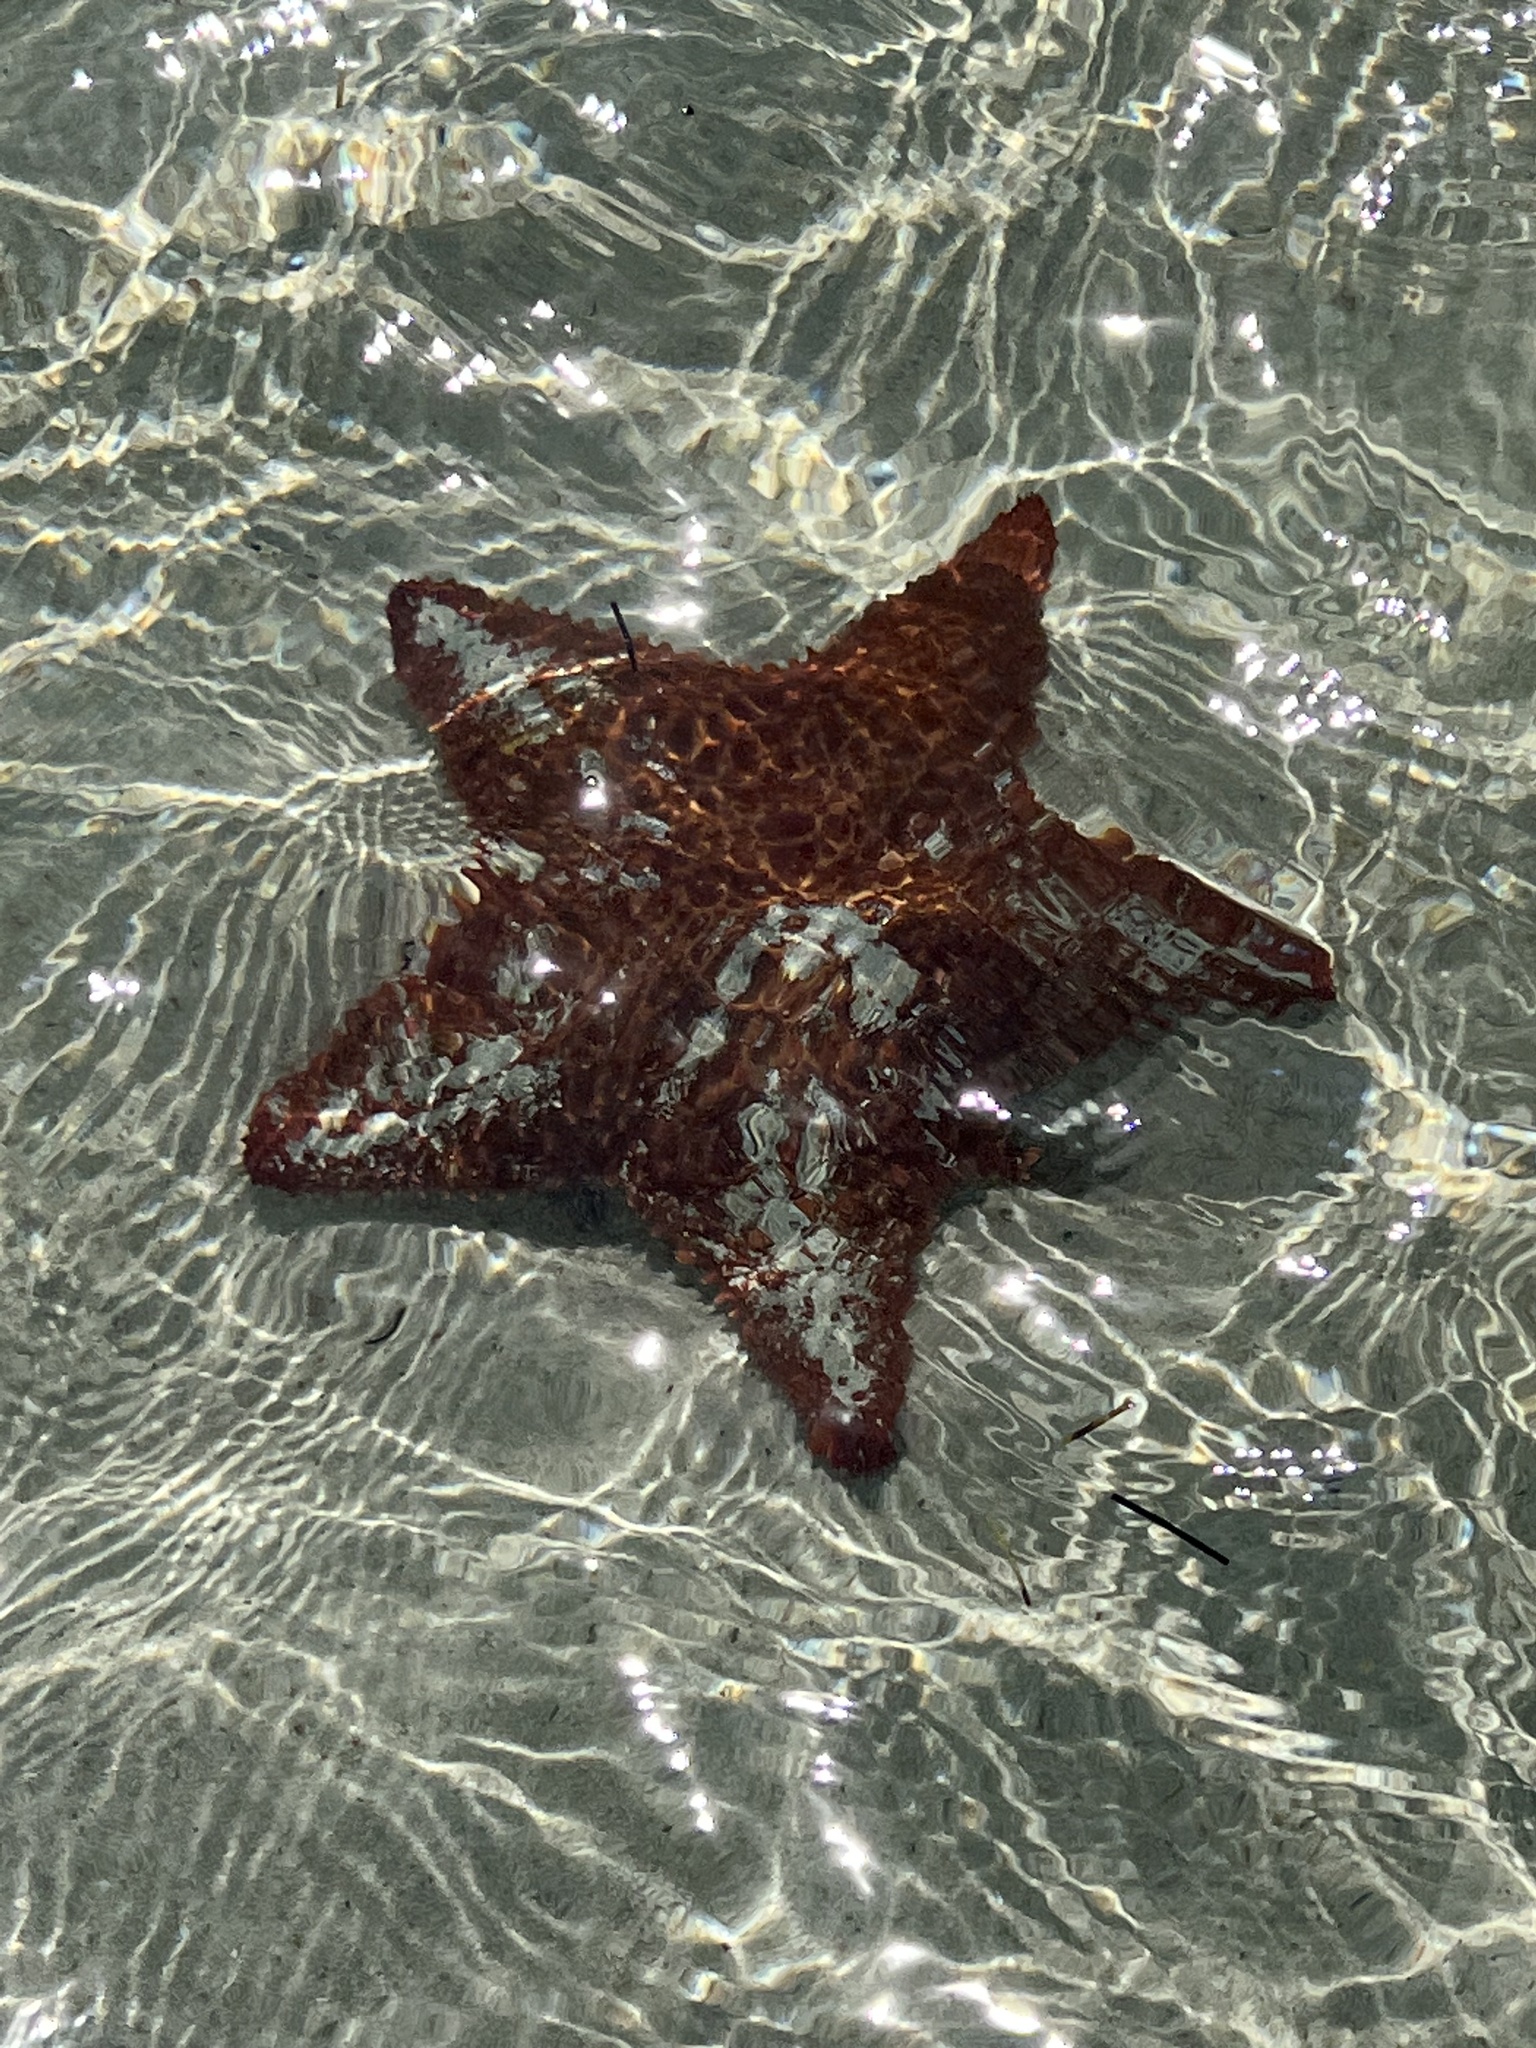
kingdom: Animalia
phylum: Echinodermata
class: Asteroidea
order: Valvatida
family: Oreasteridae
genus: Oreaster
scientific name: Oreaster reticulatus
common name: Cushion sea star
